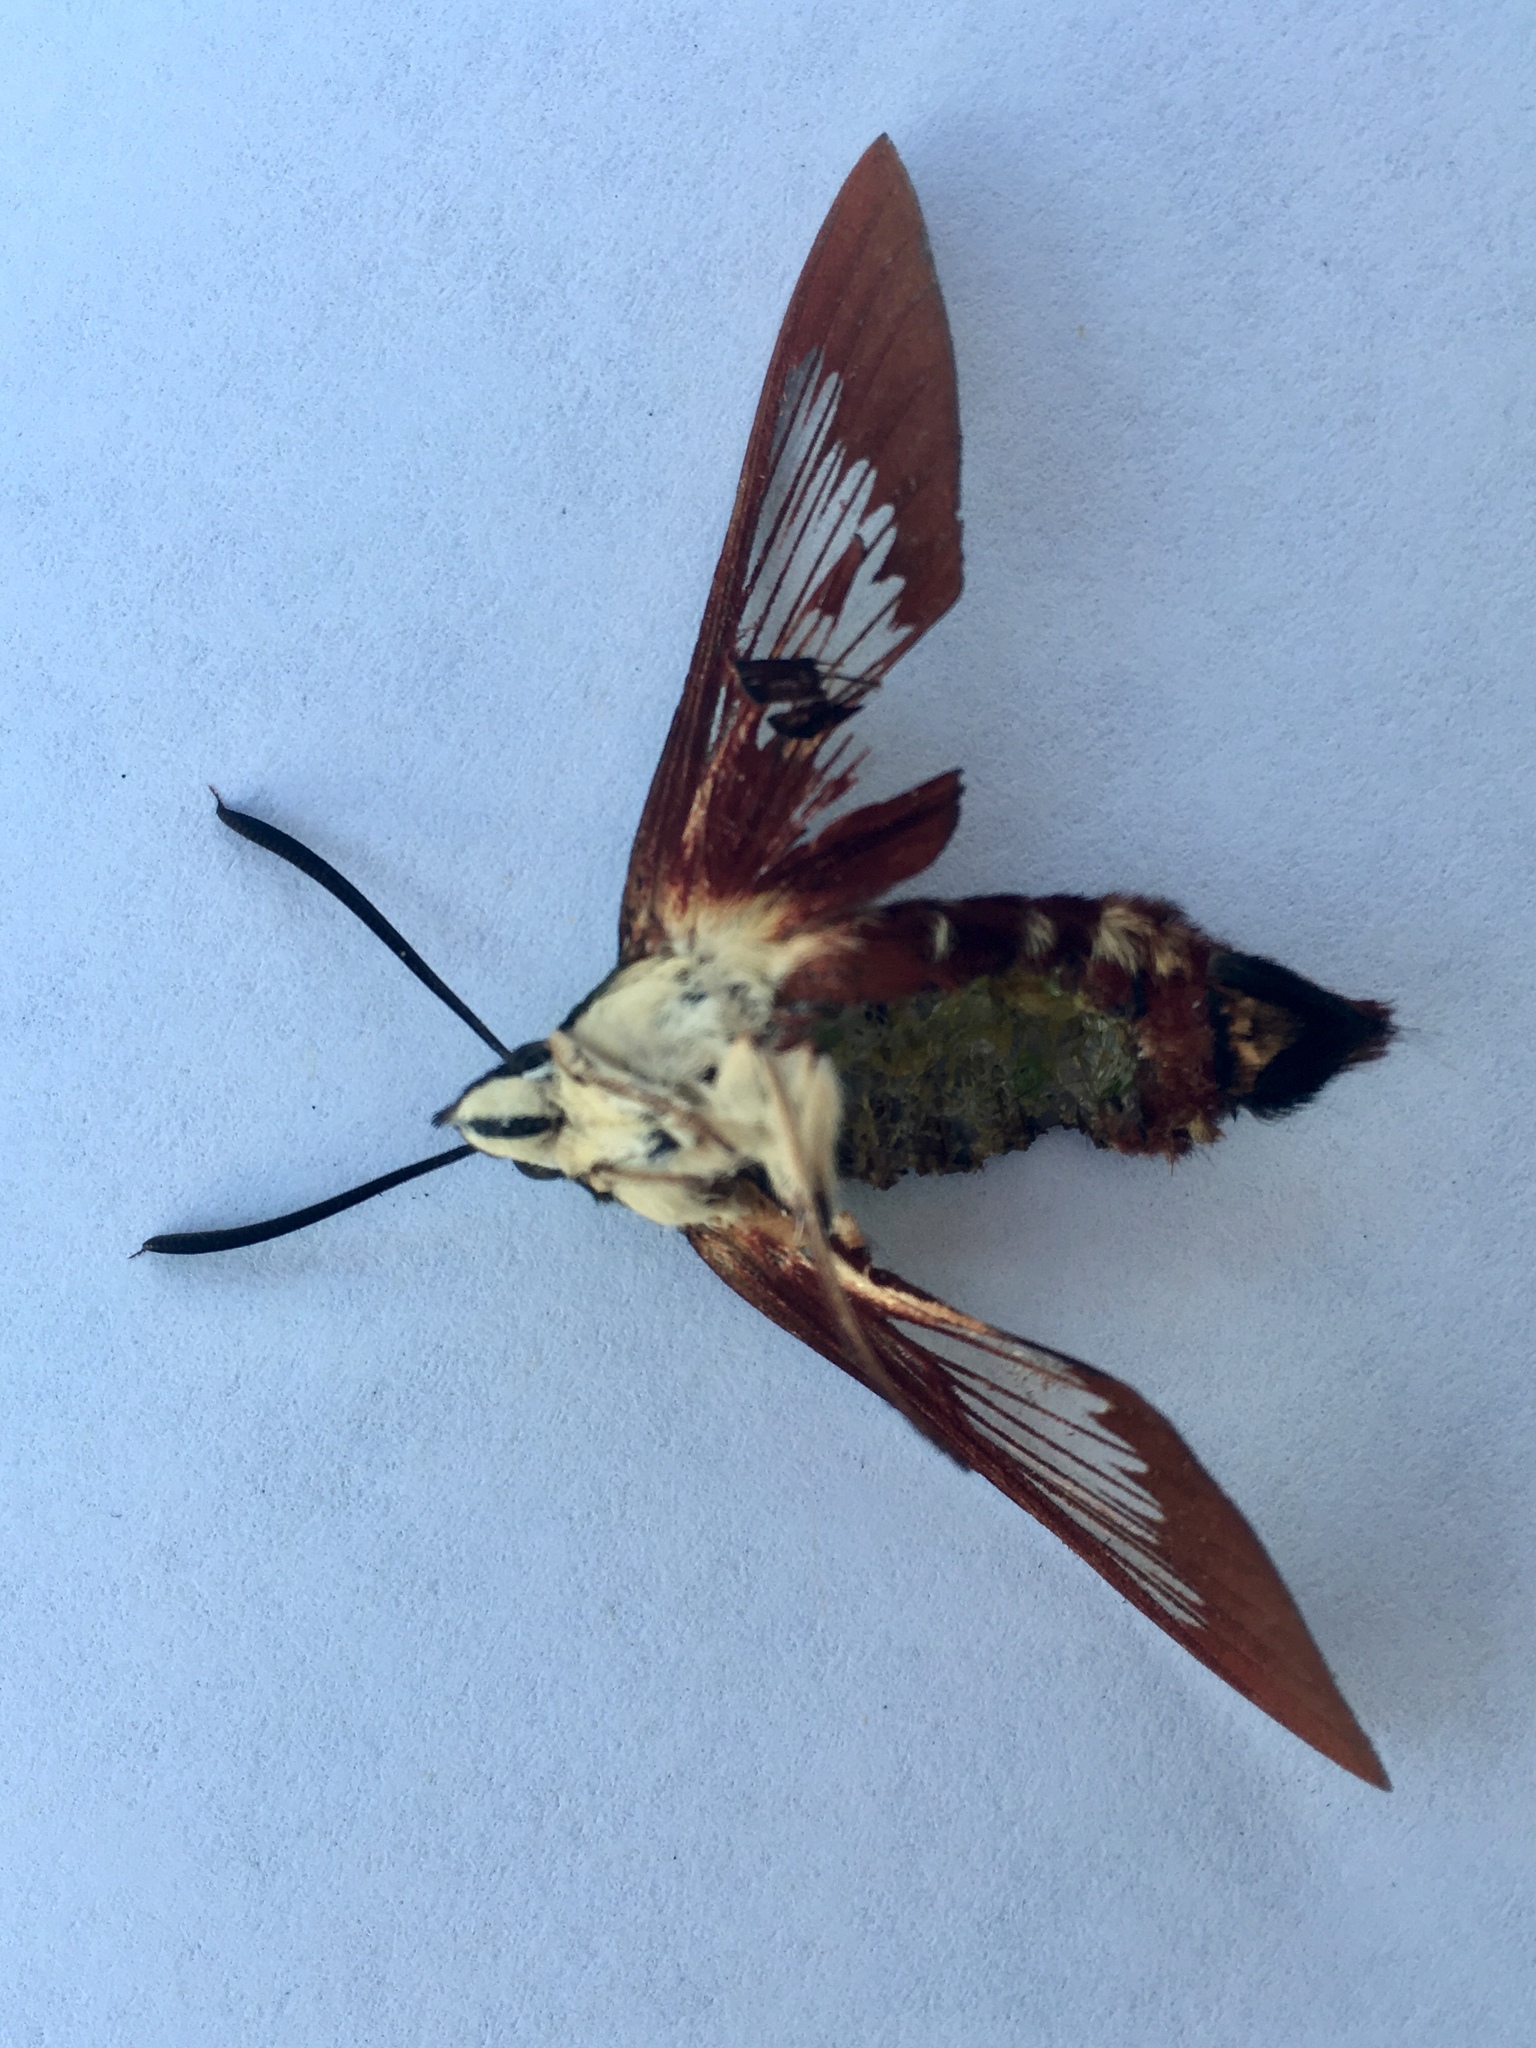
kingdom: Animalia
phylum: Arthropoda
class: Insecta
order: Lepidoptera
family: Sphingidae
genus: Hemaris
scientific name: Hemaris thysbe
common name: Common clear-wing
